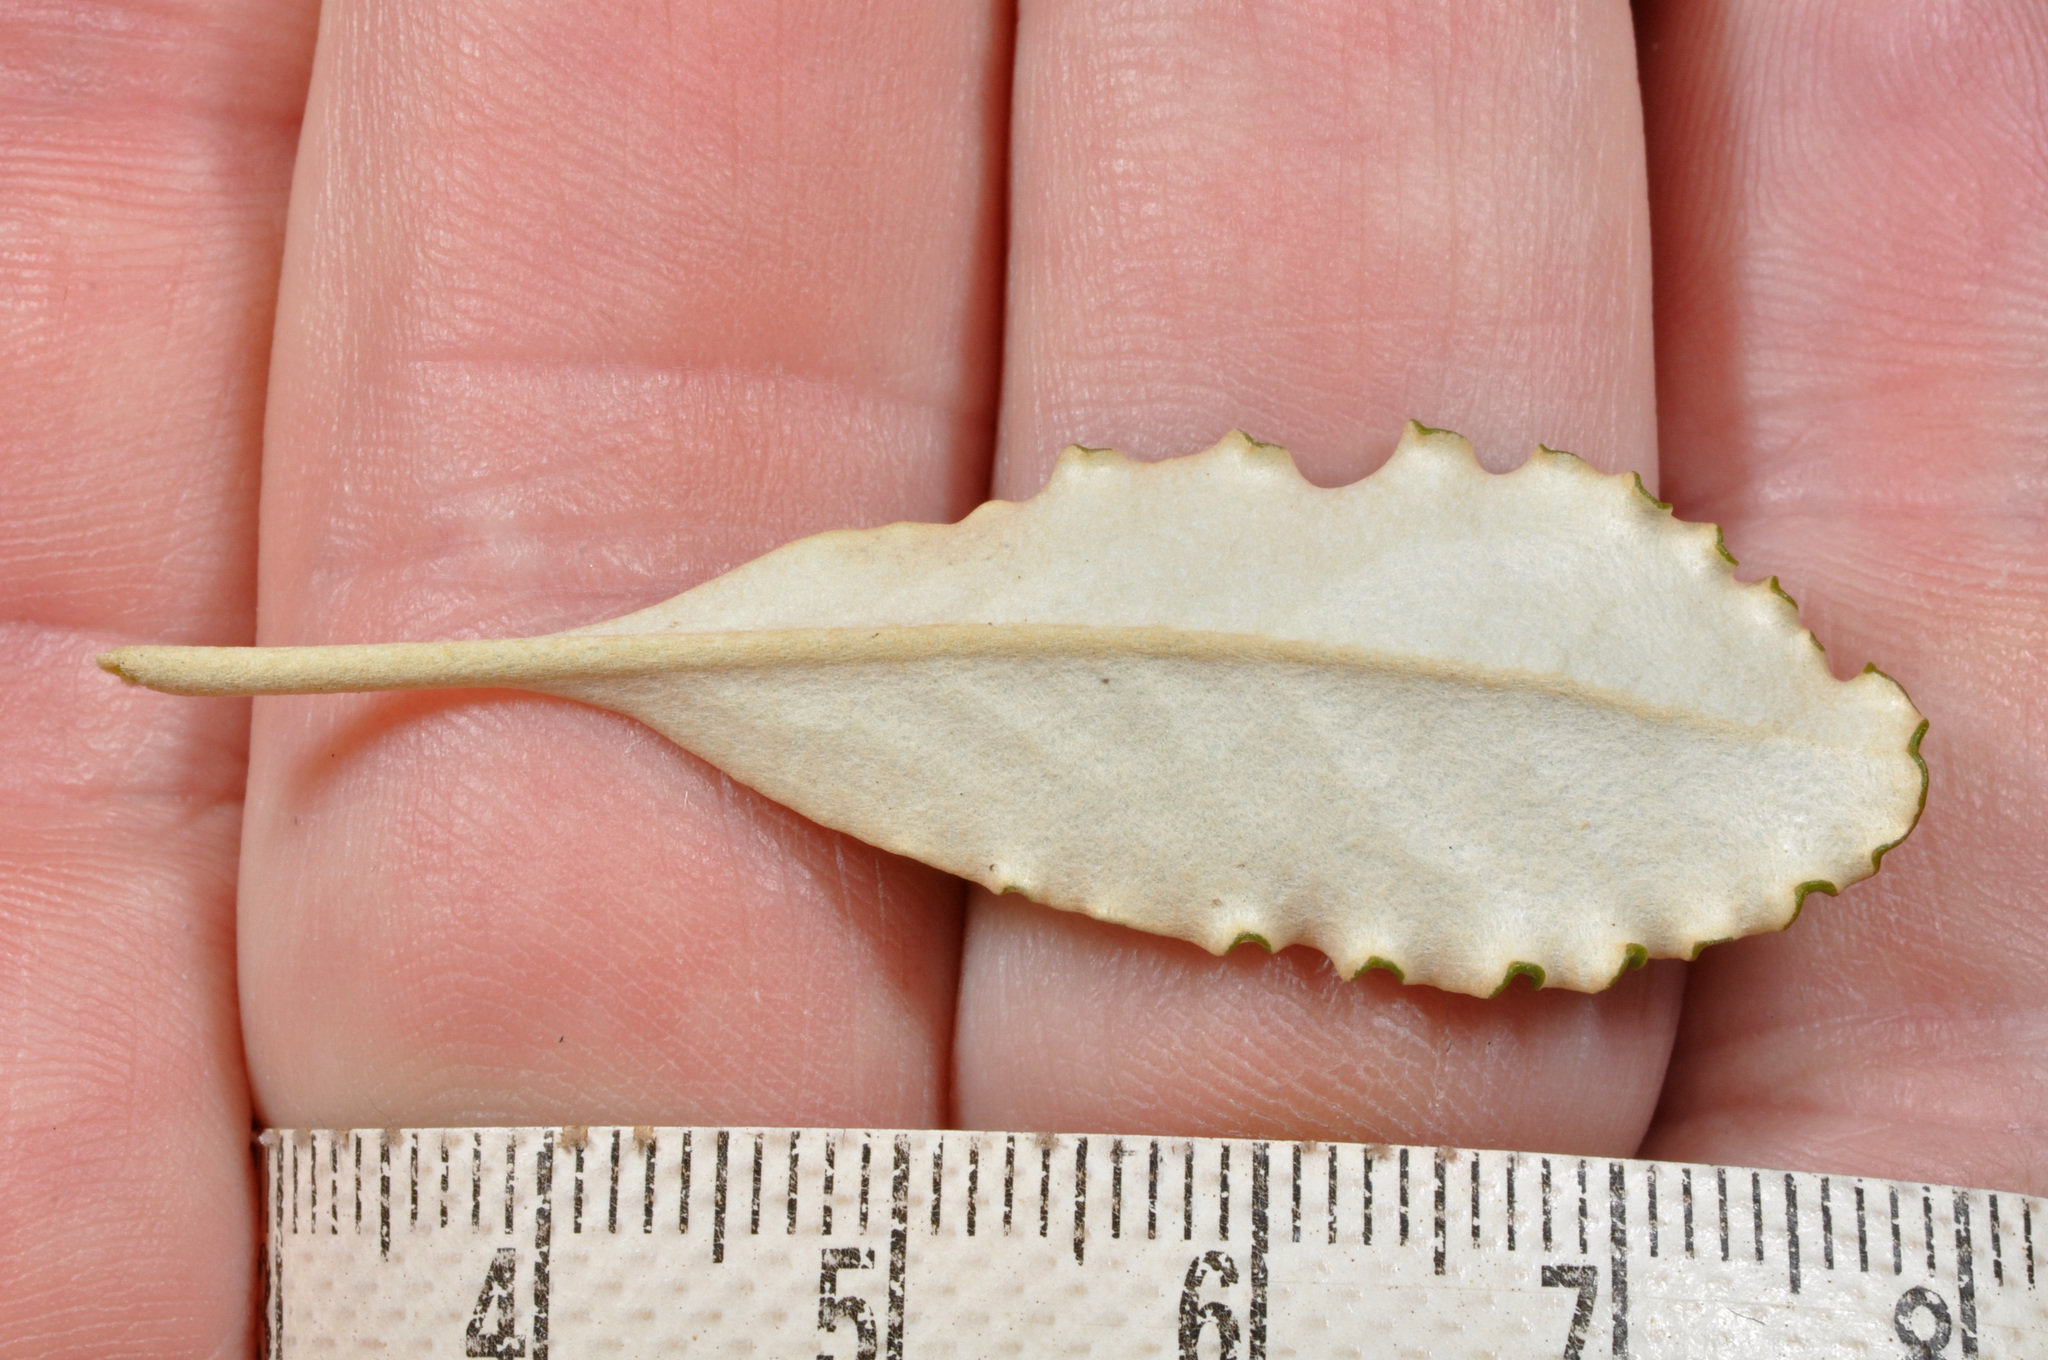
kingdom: Plantae
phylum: Tracheophyta
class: Magnoliopsida
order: Asterales
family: Asteraceae
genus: Brachyglottis
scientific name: Brachyglottis monroi
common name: Monro's ragwort
